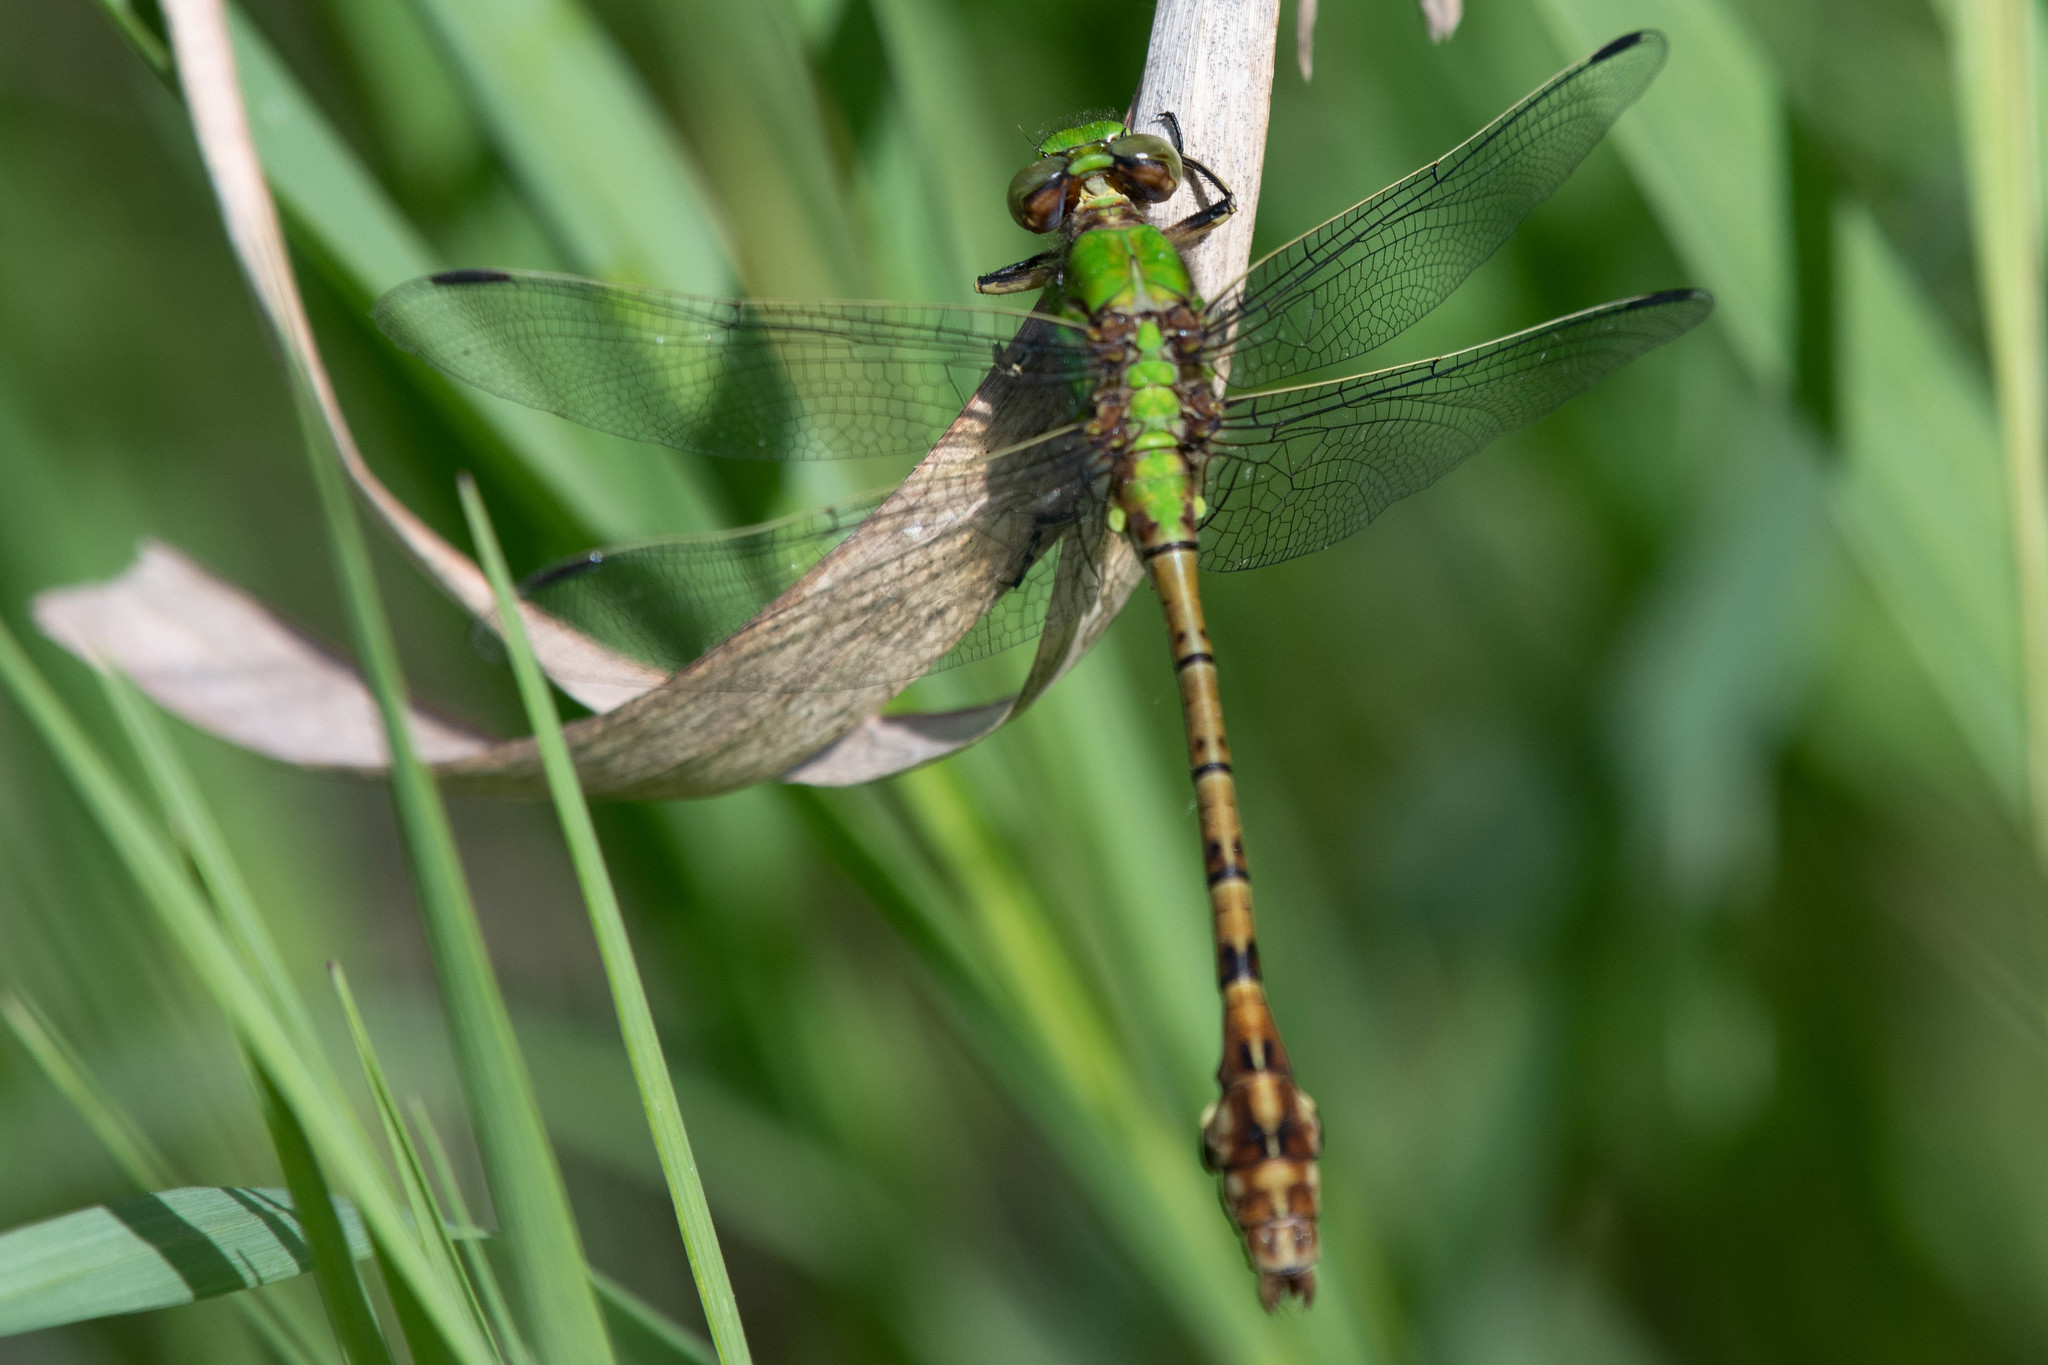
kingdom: Animalia
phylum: Arthropoda
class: Insecta
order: Odonata
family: Gomphidae
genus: Ophiogomphus
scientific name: Ophiogomphus rupinsulensis
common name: Rusty snaketail
